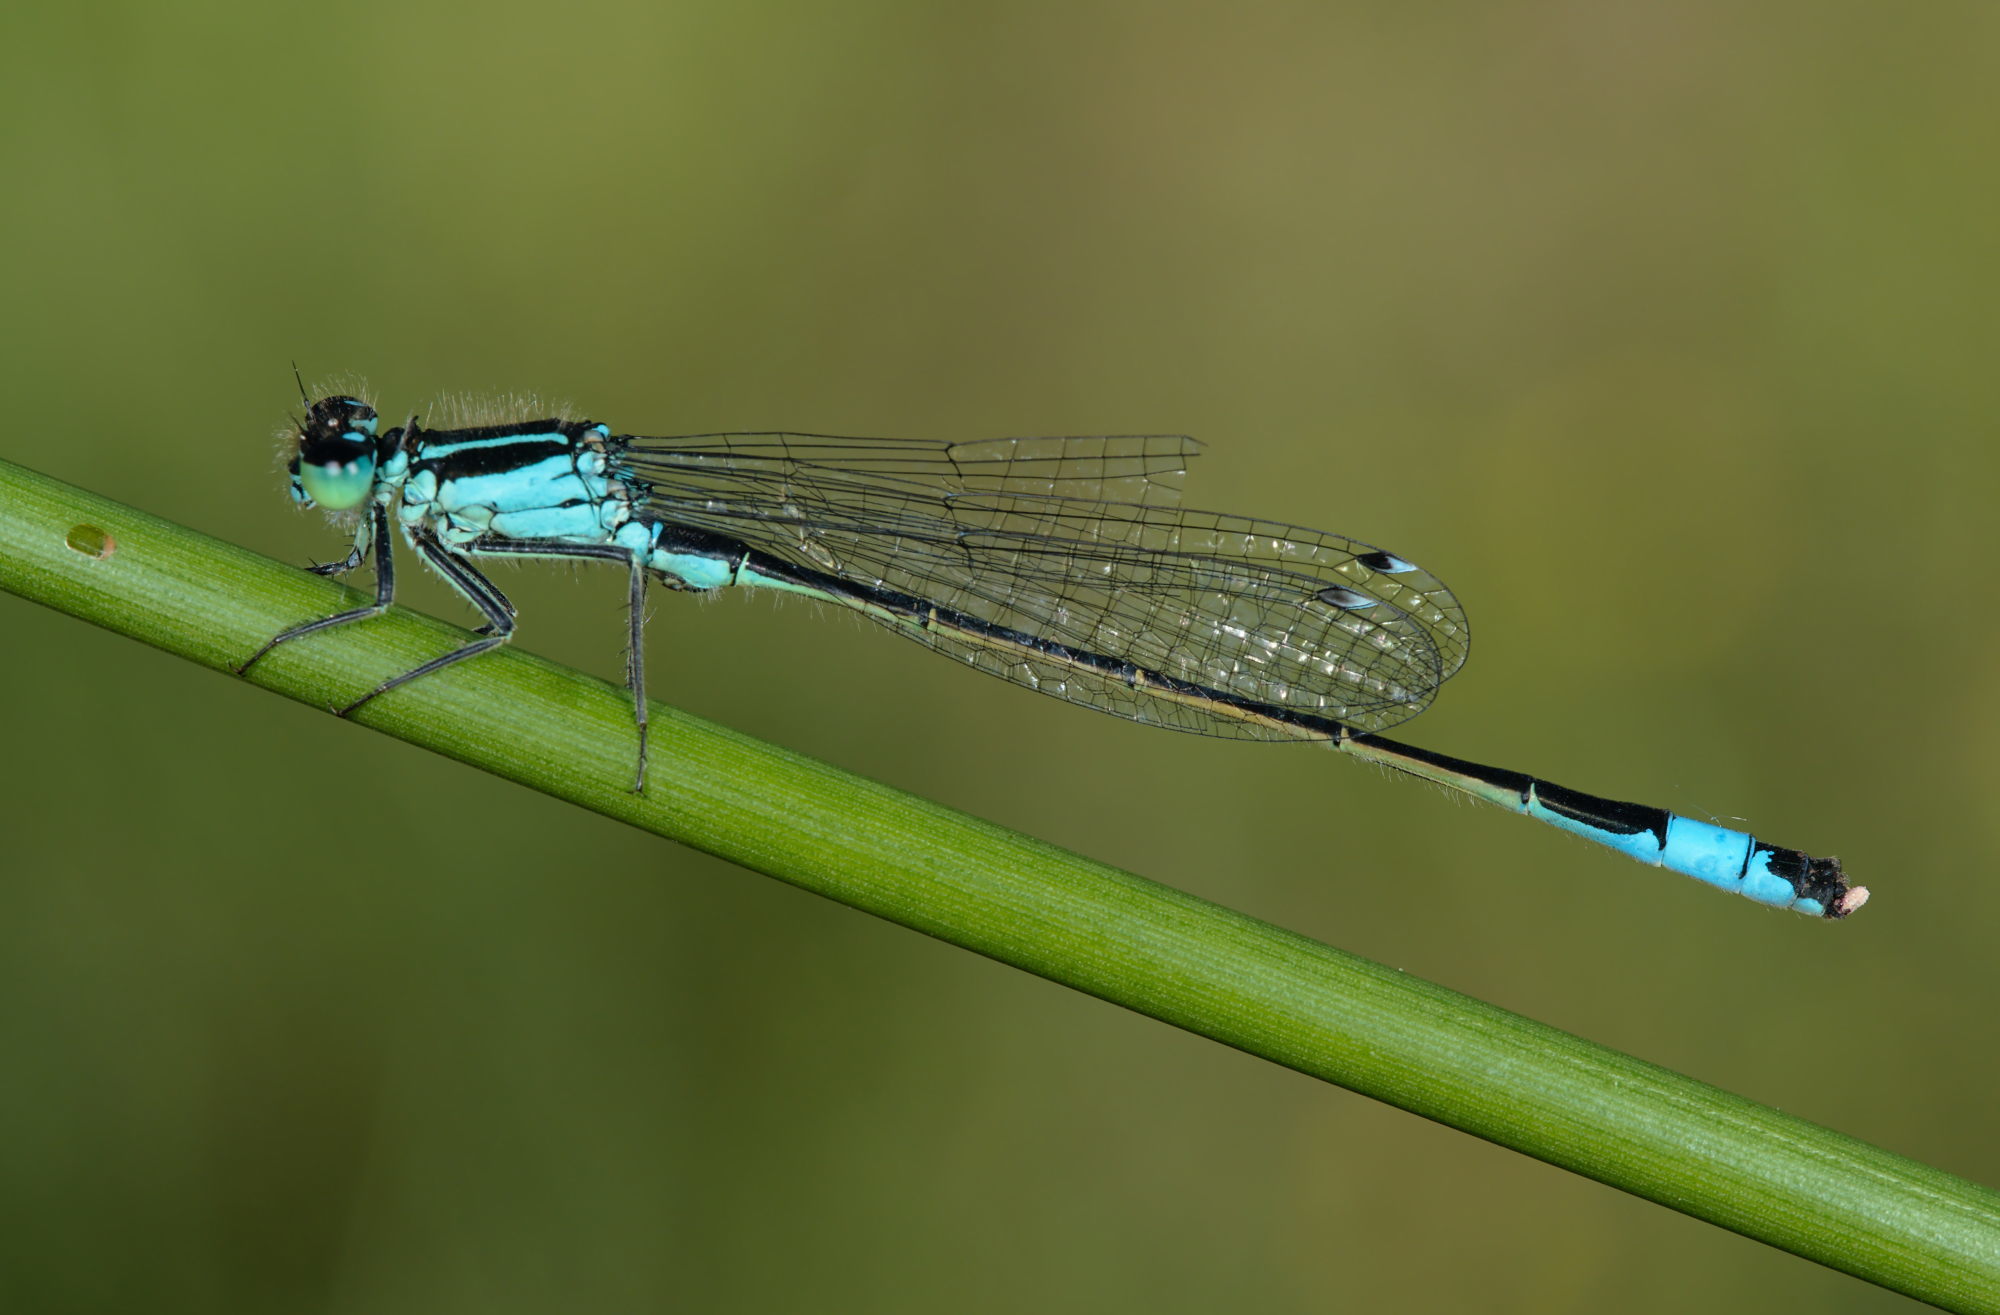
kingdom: Animalia
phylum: Arthropoda
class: Insecta
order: Odonata
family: Coenagrionidae
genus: Ischnura
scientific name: Ischnura elegans
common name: Blue-tailed damselfly
